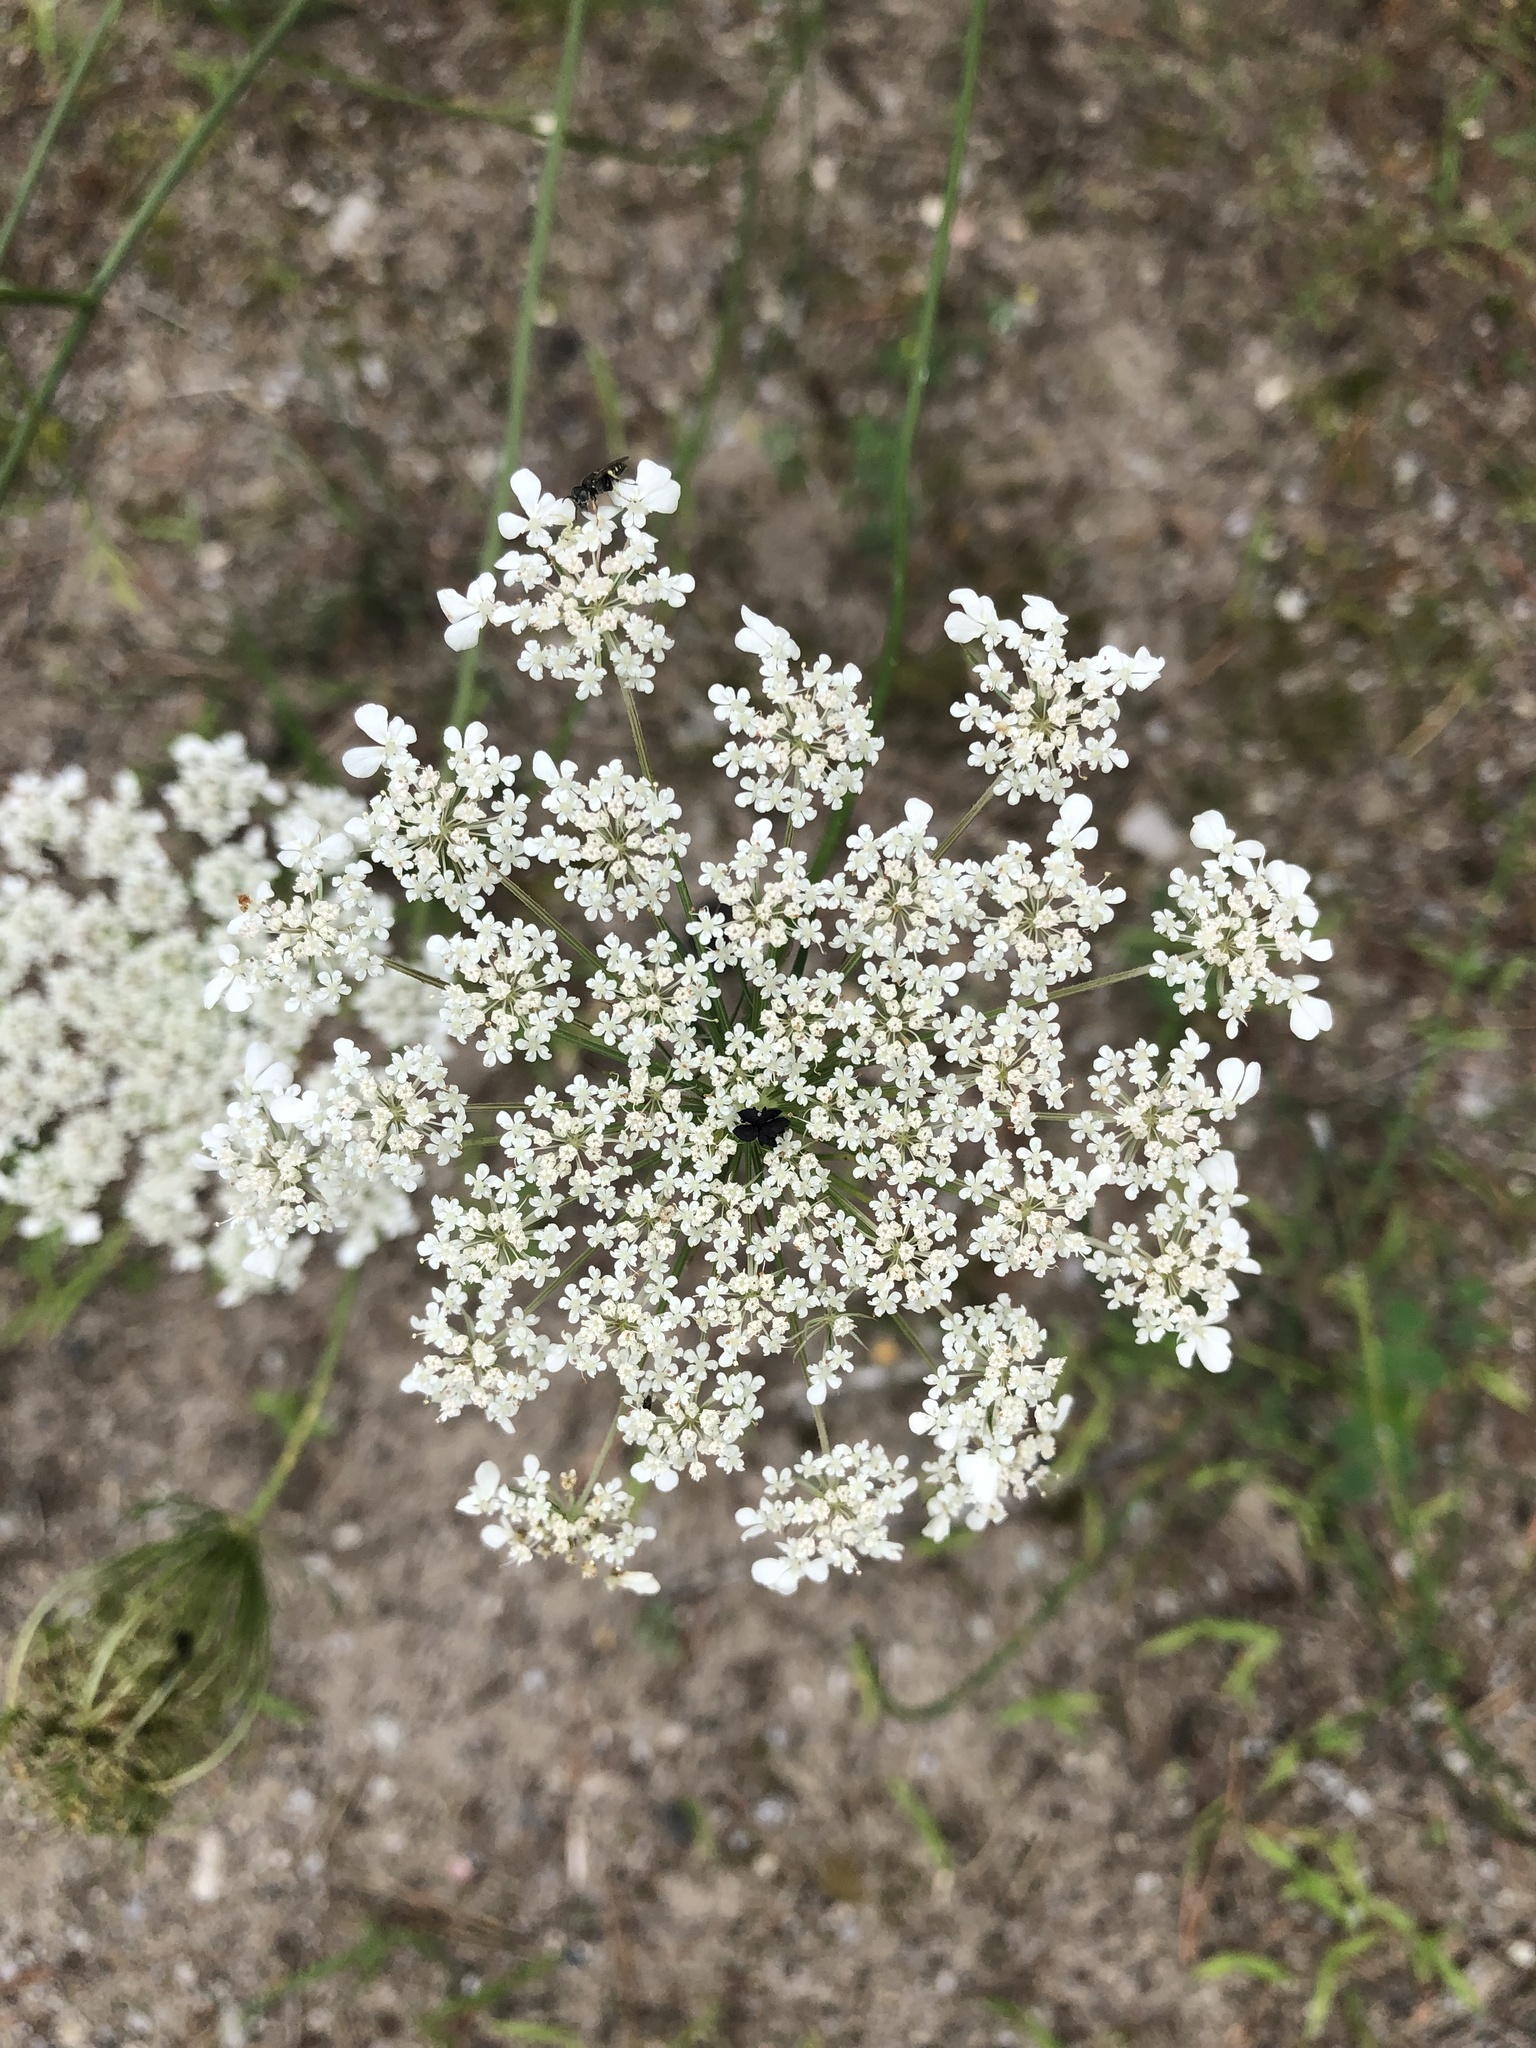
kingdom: Plantae
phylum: Tracheophyta
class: Magnoliopsida
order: Apiales
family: Apiaceae
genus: Daucus
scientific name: Daucus carota
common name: Wild carrot
